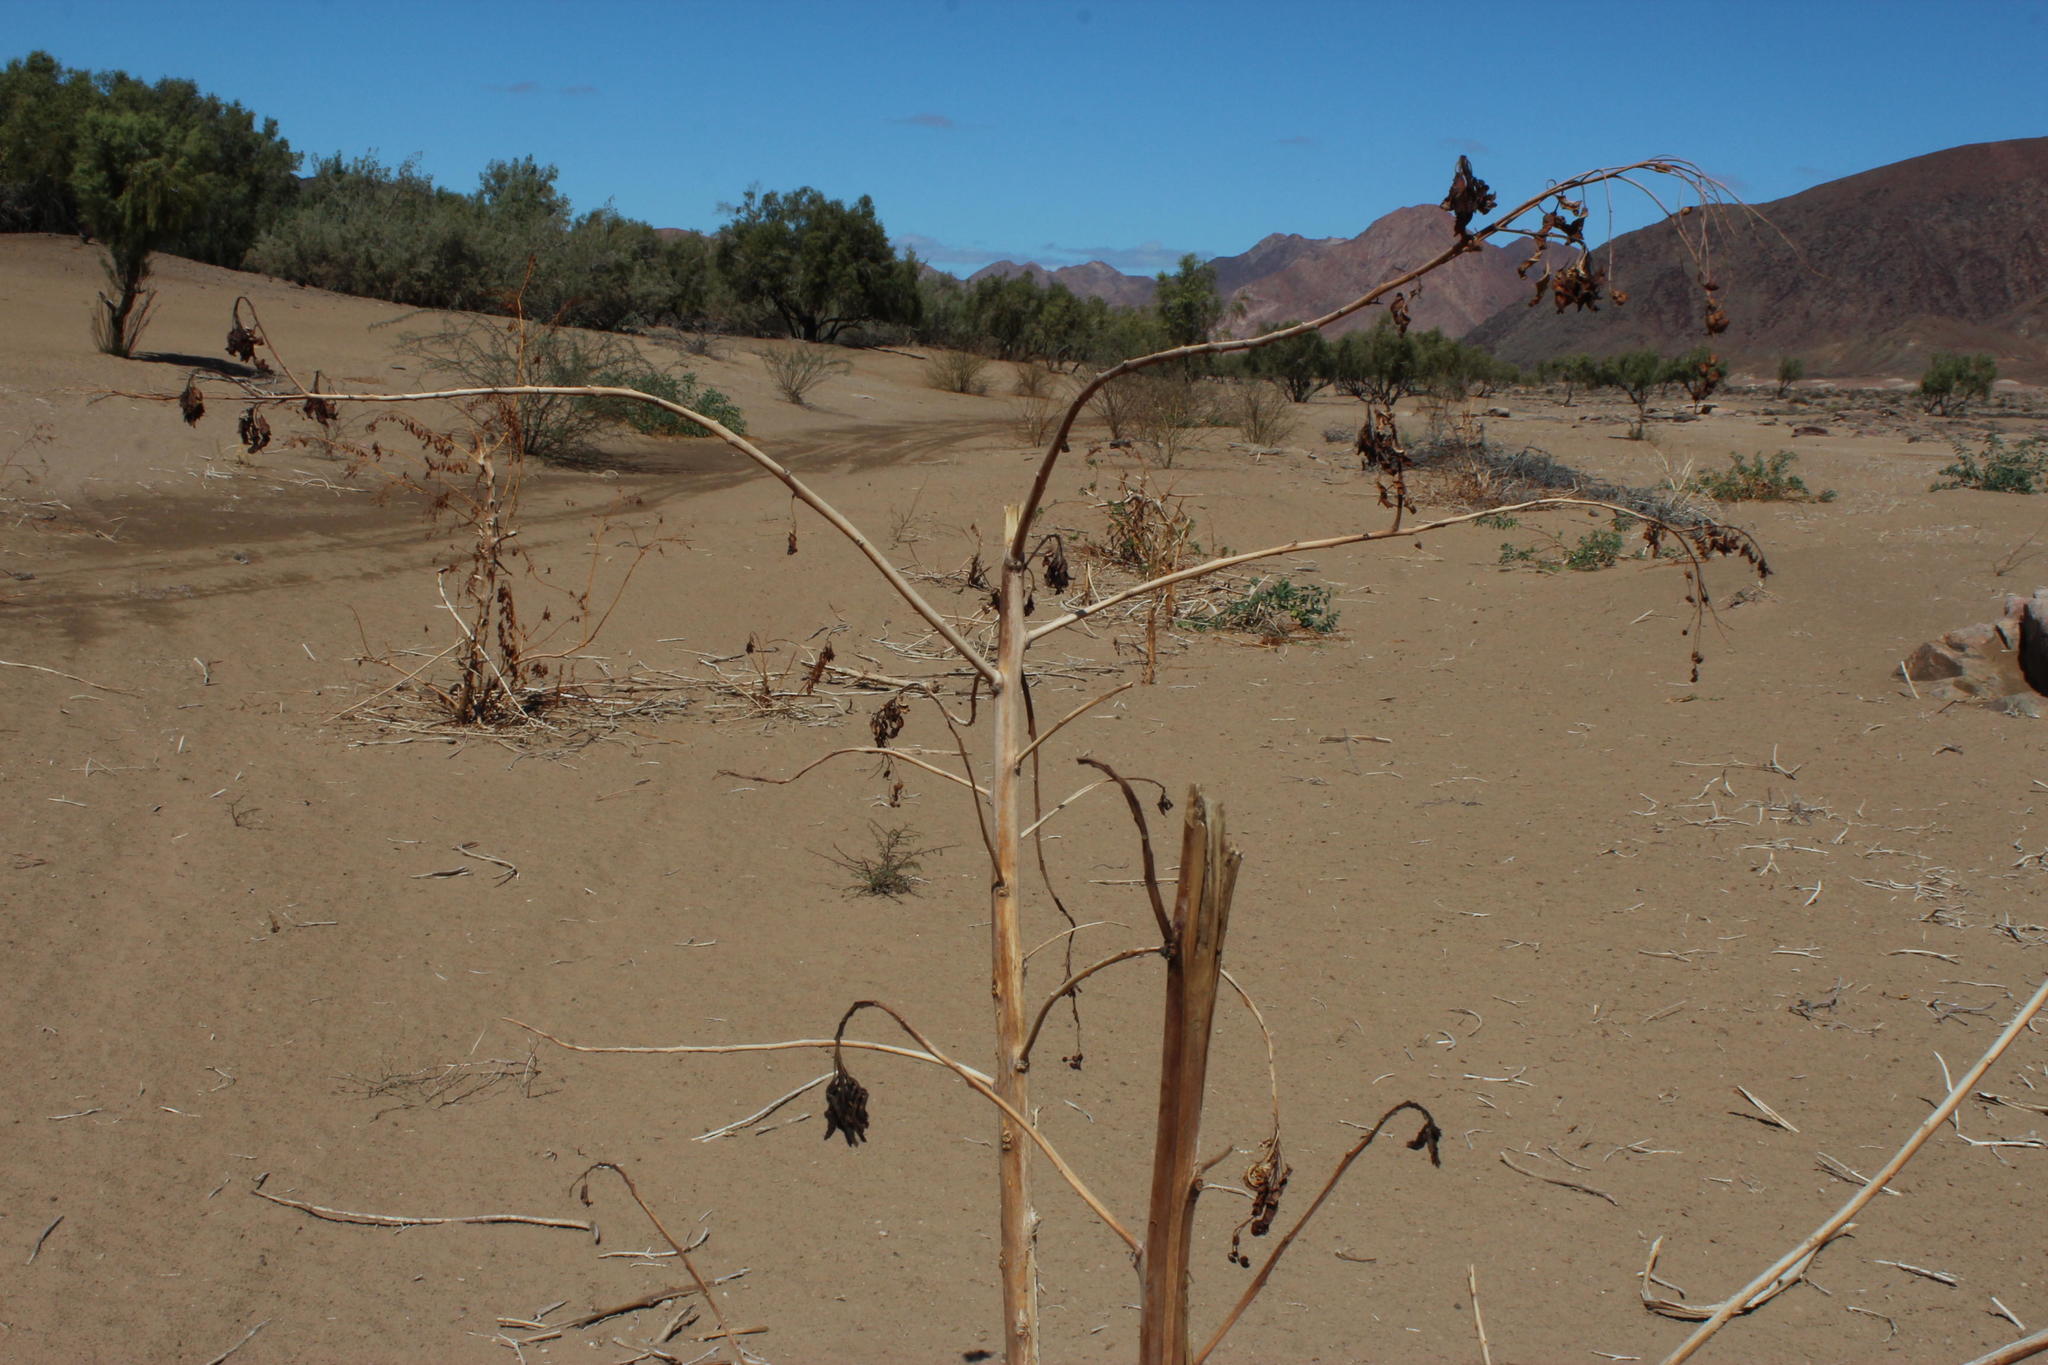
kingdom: Plantae
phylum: Tracheophyta
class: Magnoliopsida
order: Solanales
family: Solanaceae
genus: Nicotiana
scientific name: Nicotiana glauca
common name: Tree tobacco
